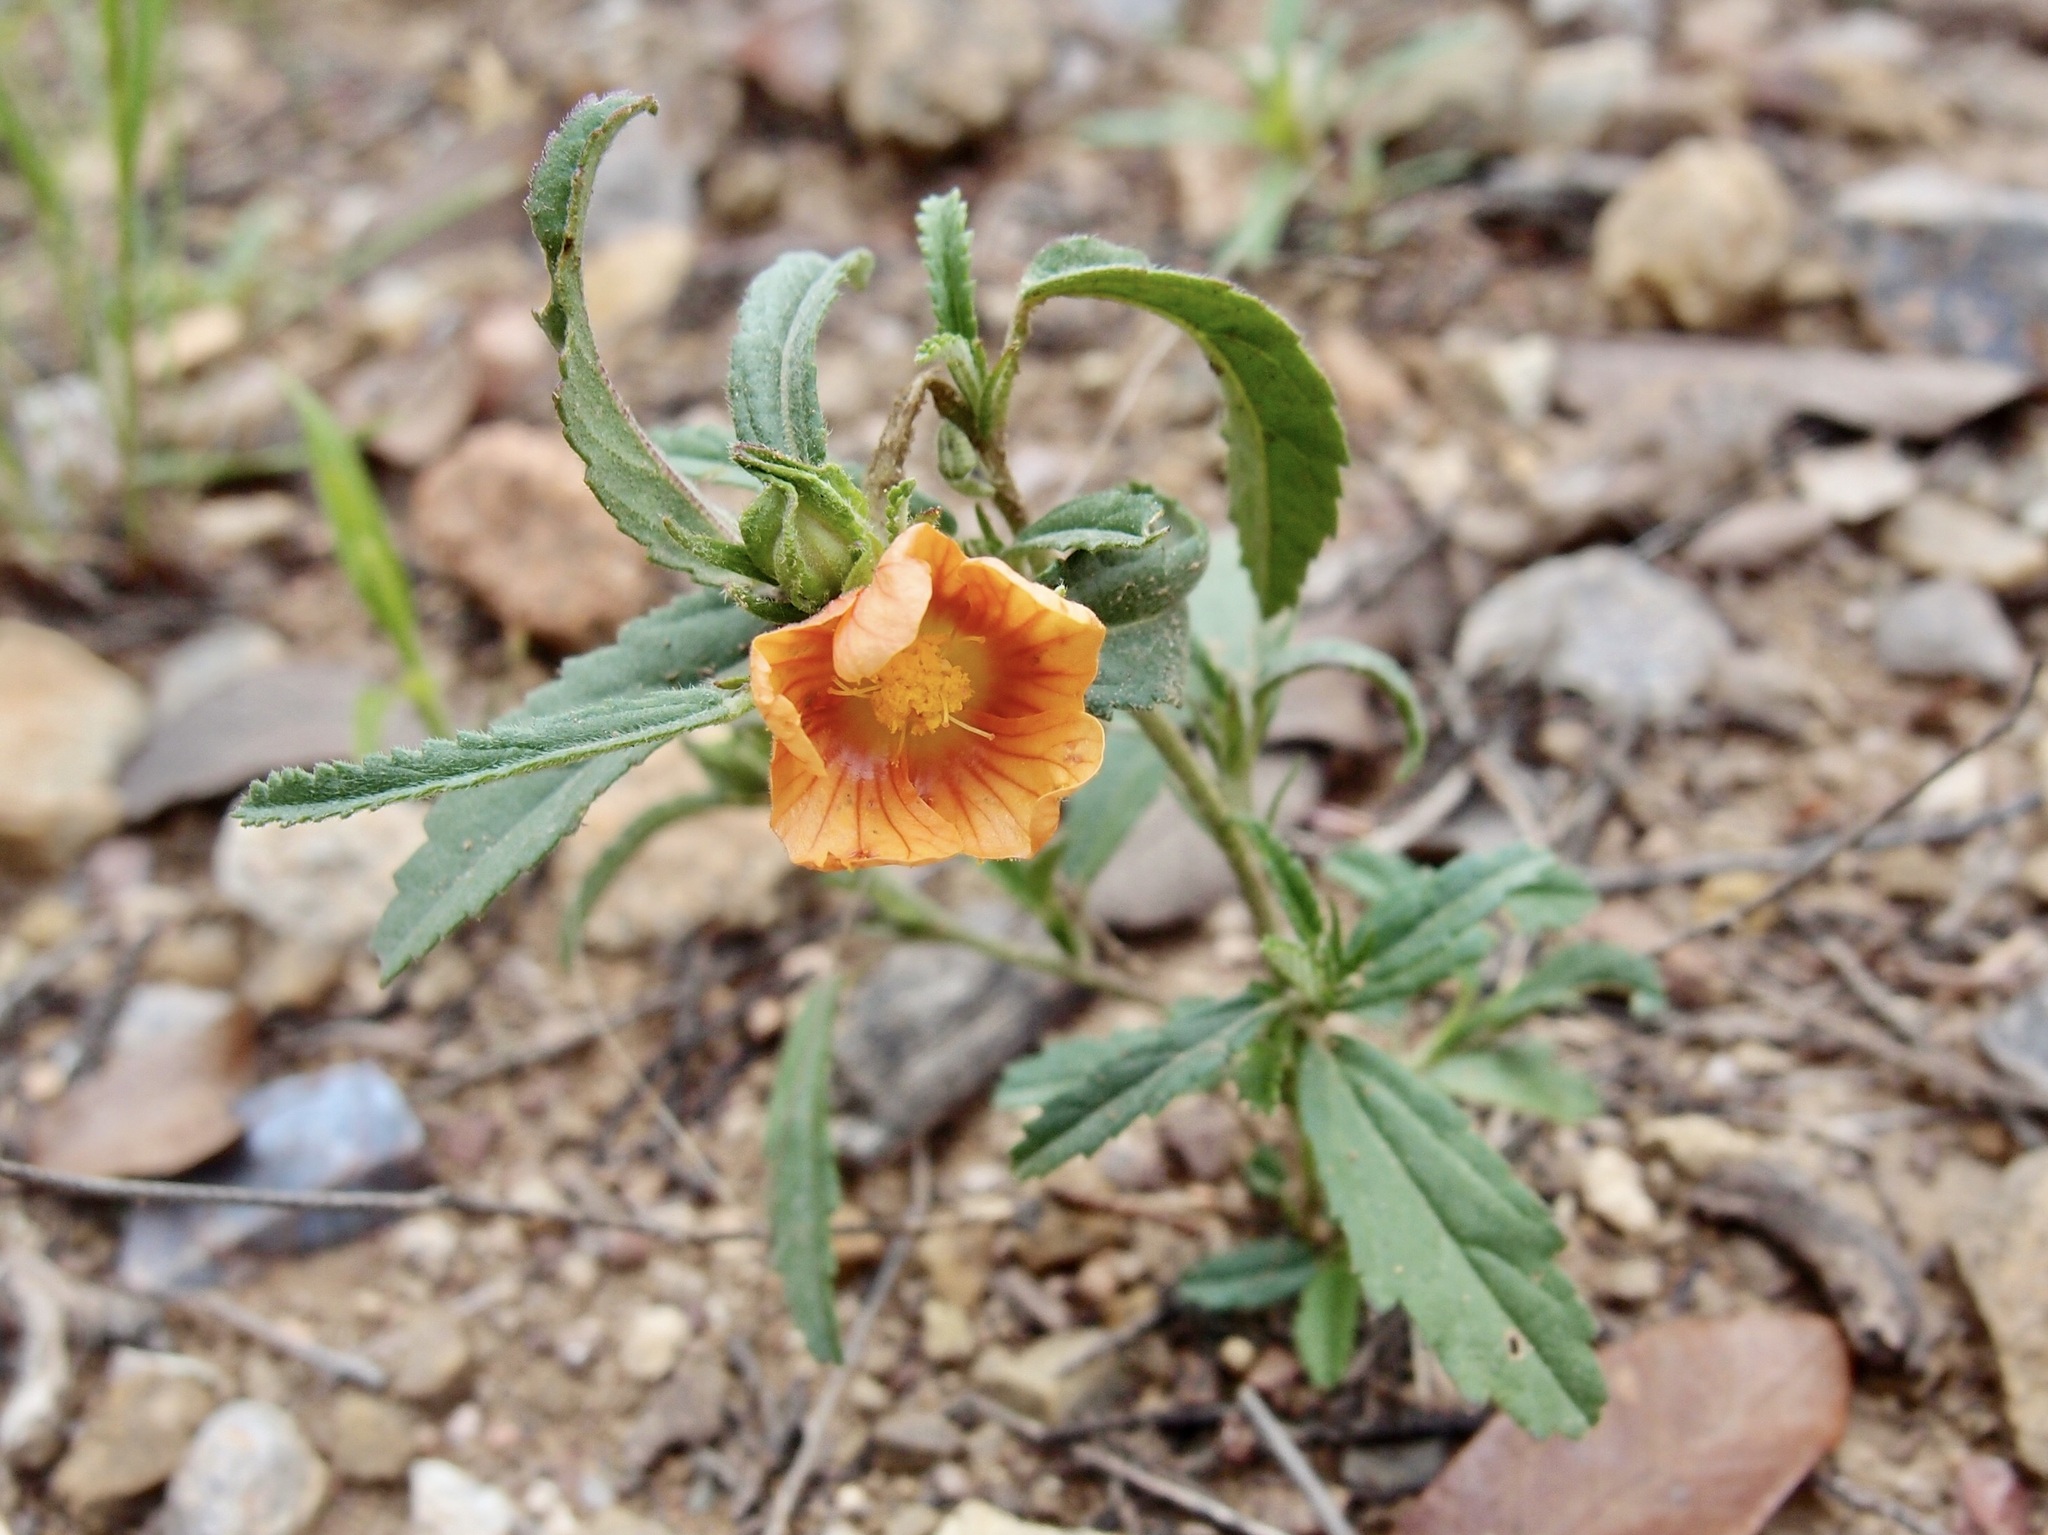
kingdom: Plantae
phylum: Tracheophyta
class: Magnoliopsida
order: Malvales
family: Malvaceae
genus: Sida
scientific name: Sida neomexicana
